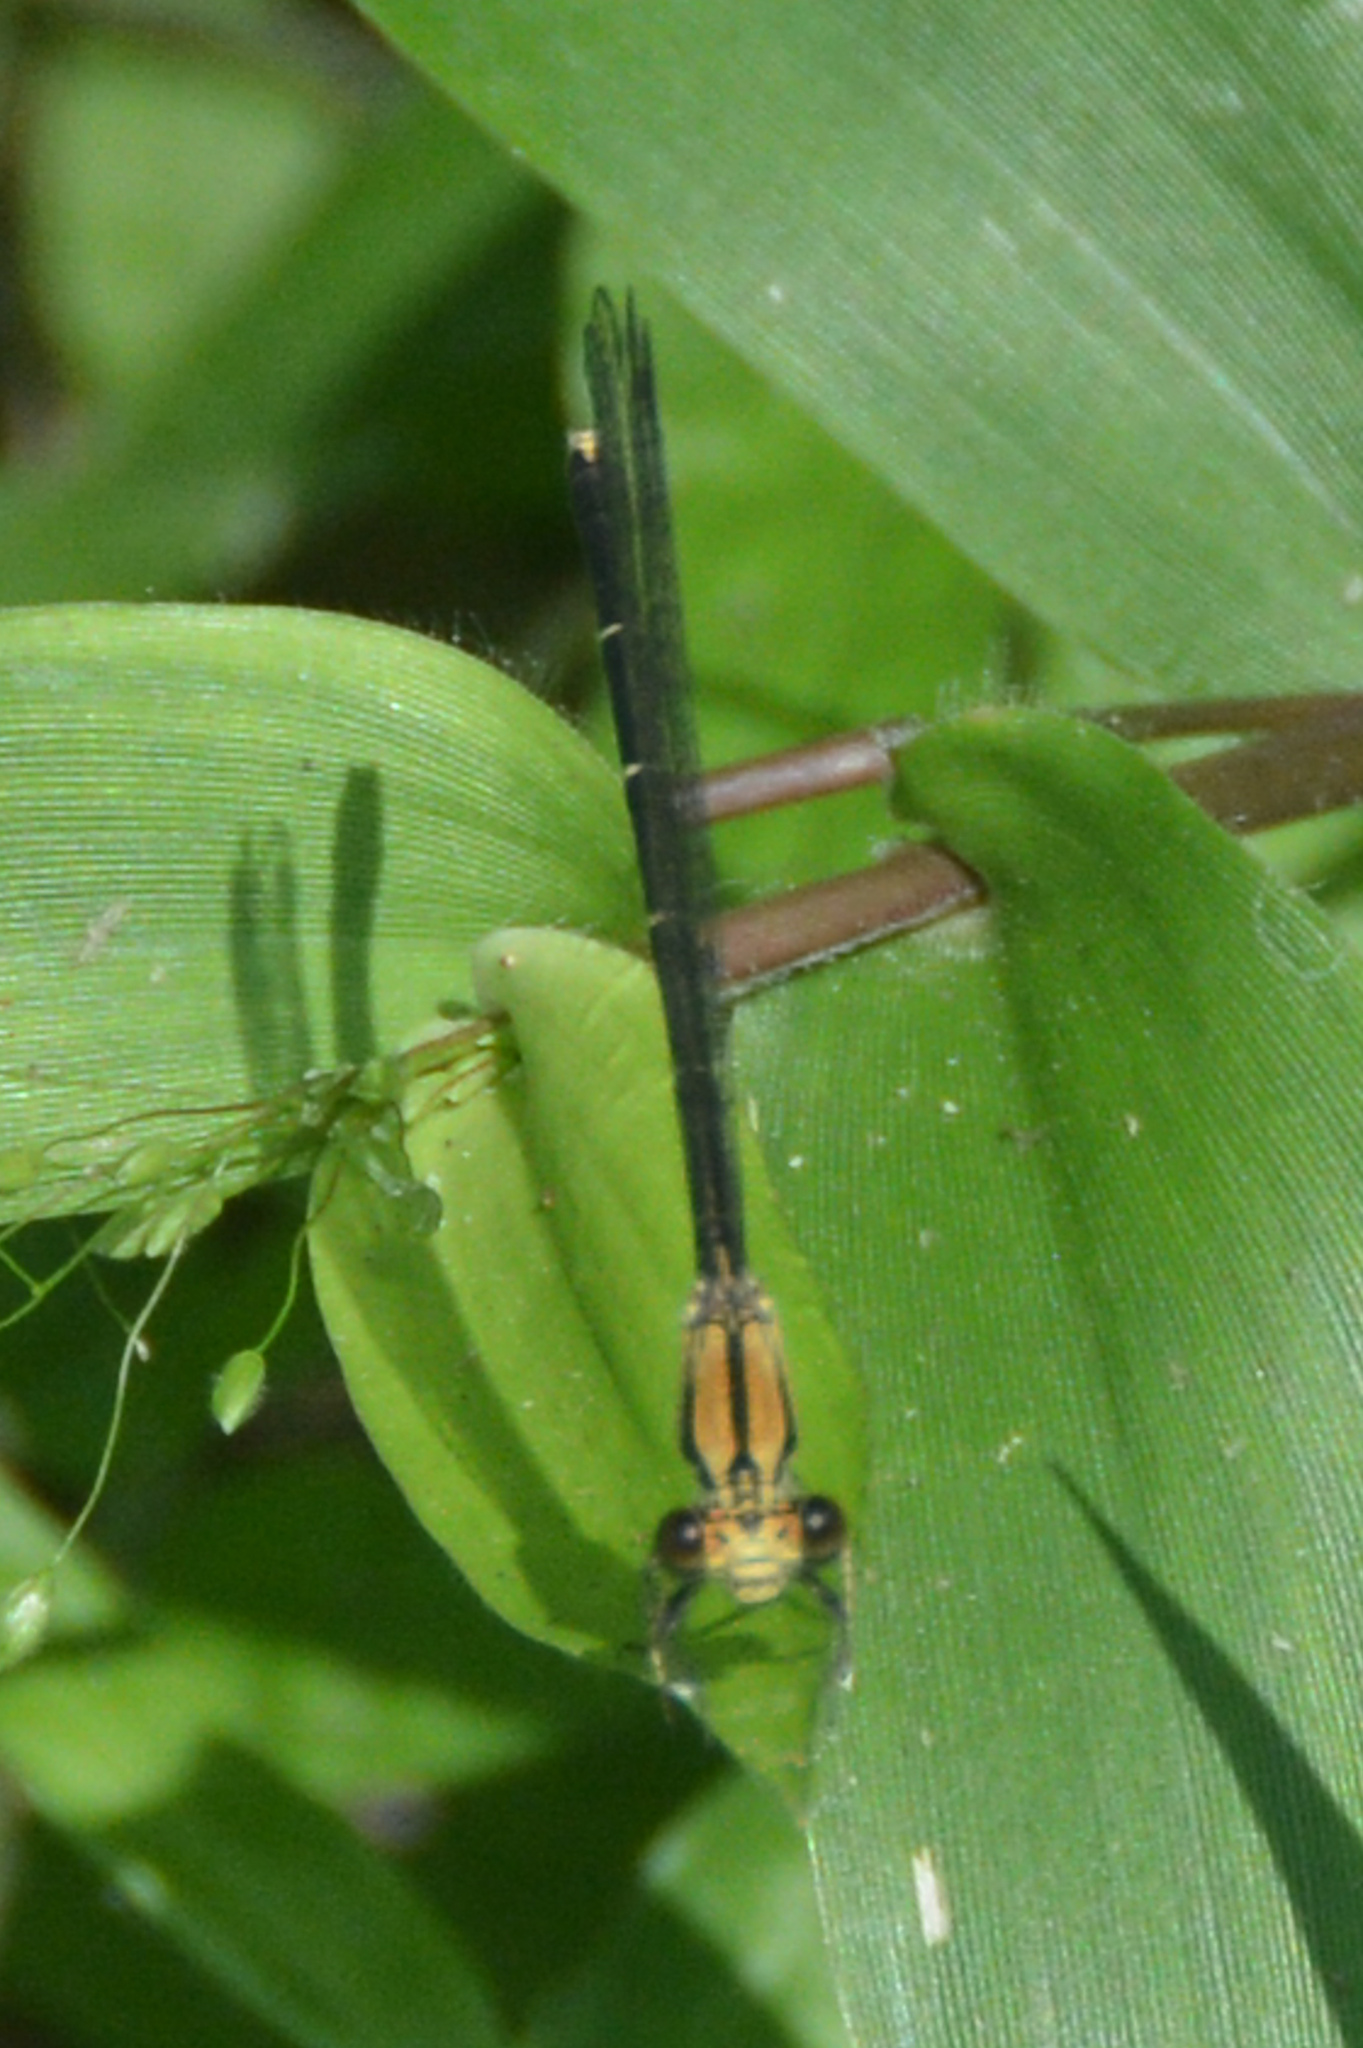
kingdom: Animalia
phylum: Arthropoda
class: Insecta
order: Odonata
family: Coenagrionidae
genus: Argia
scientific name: Argia tibialis
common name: Blue-tipped dancer
